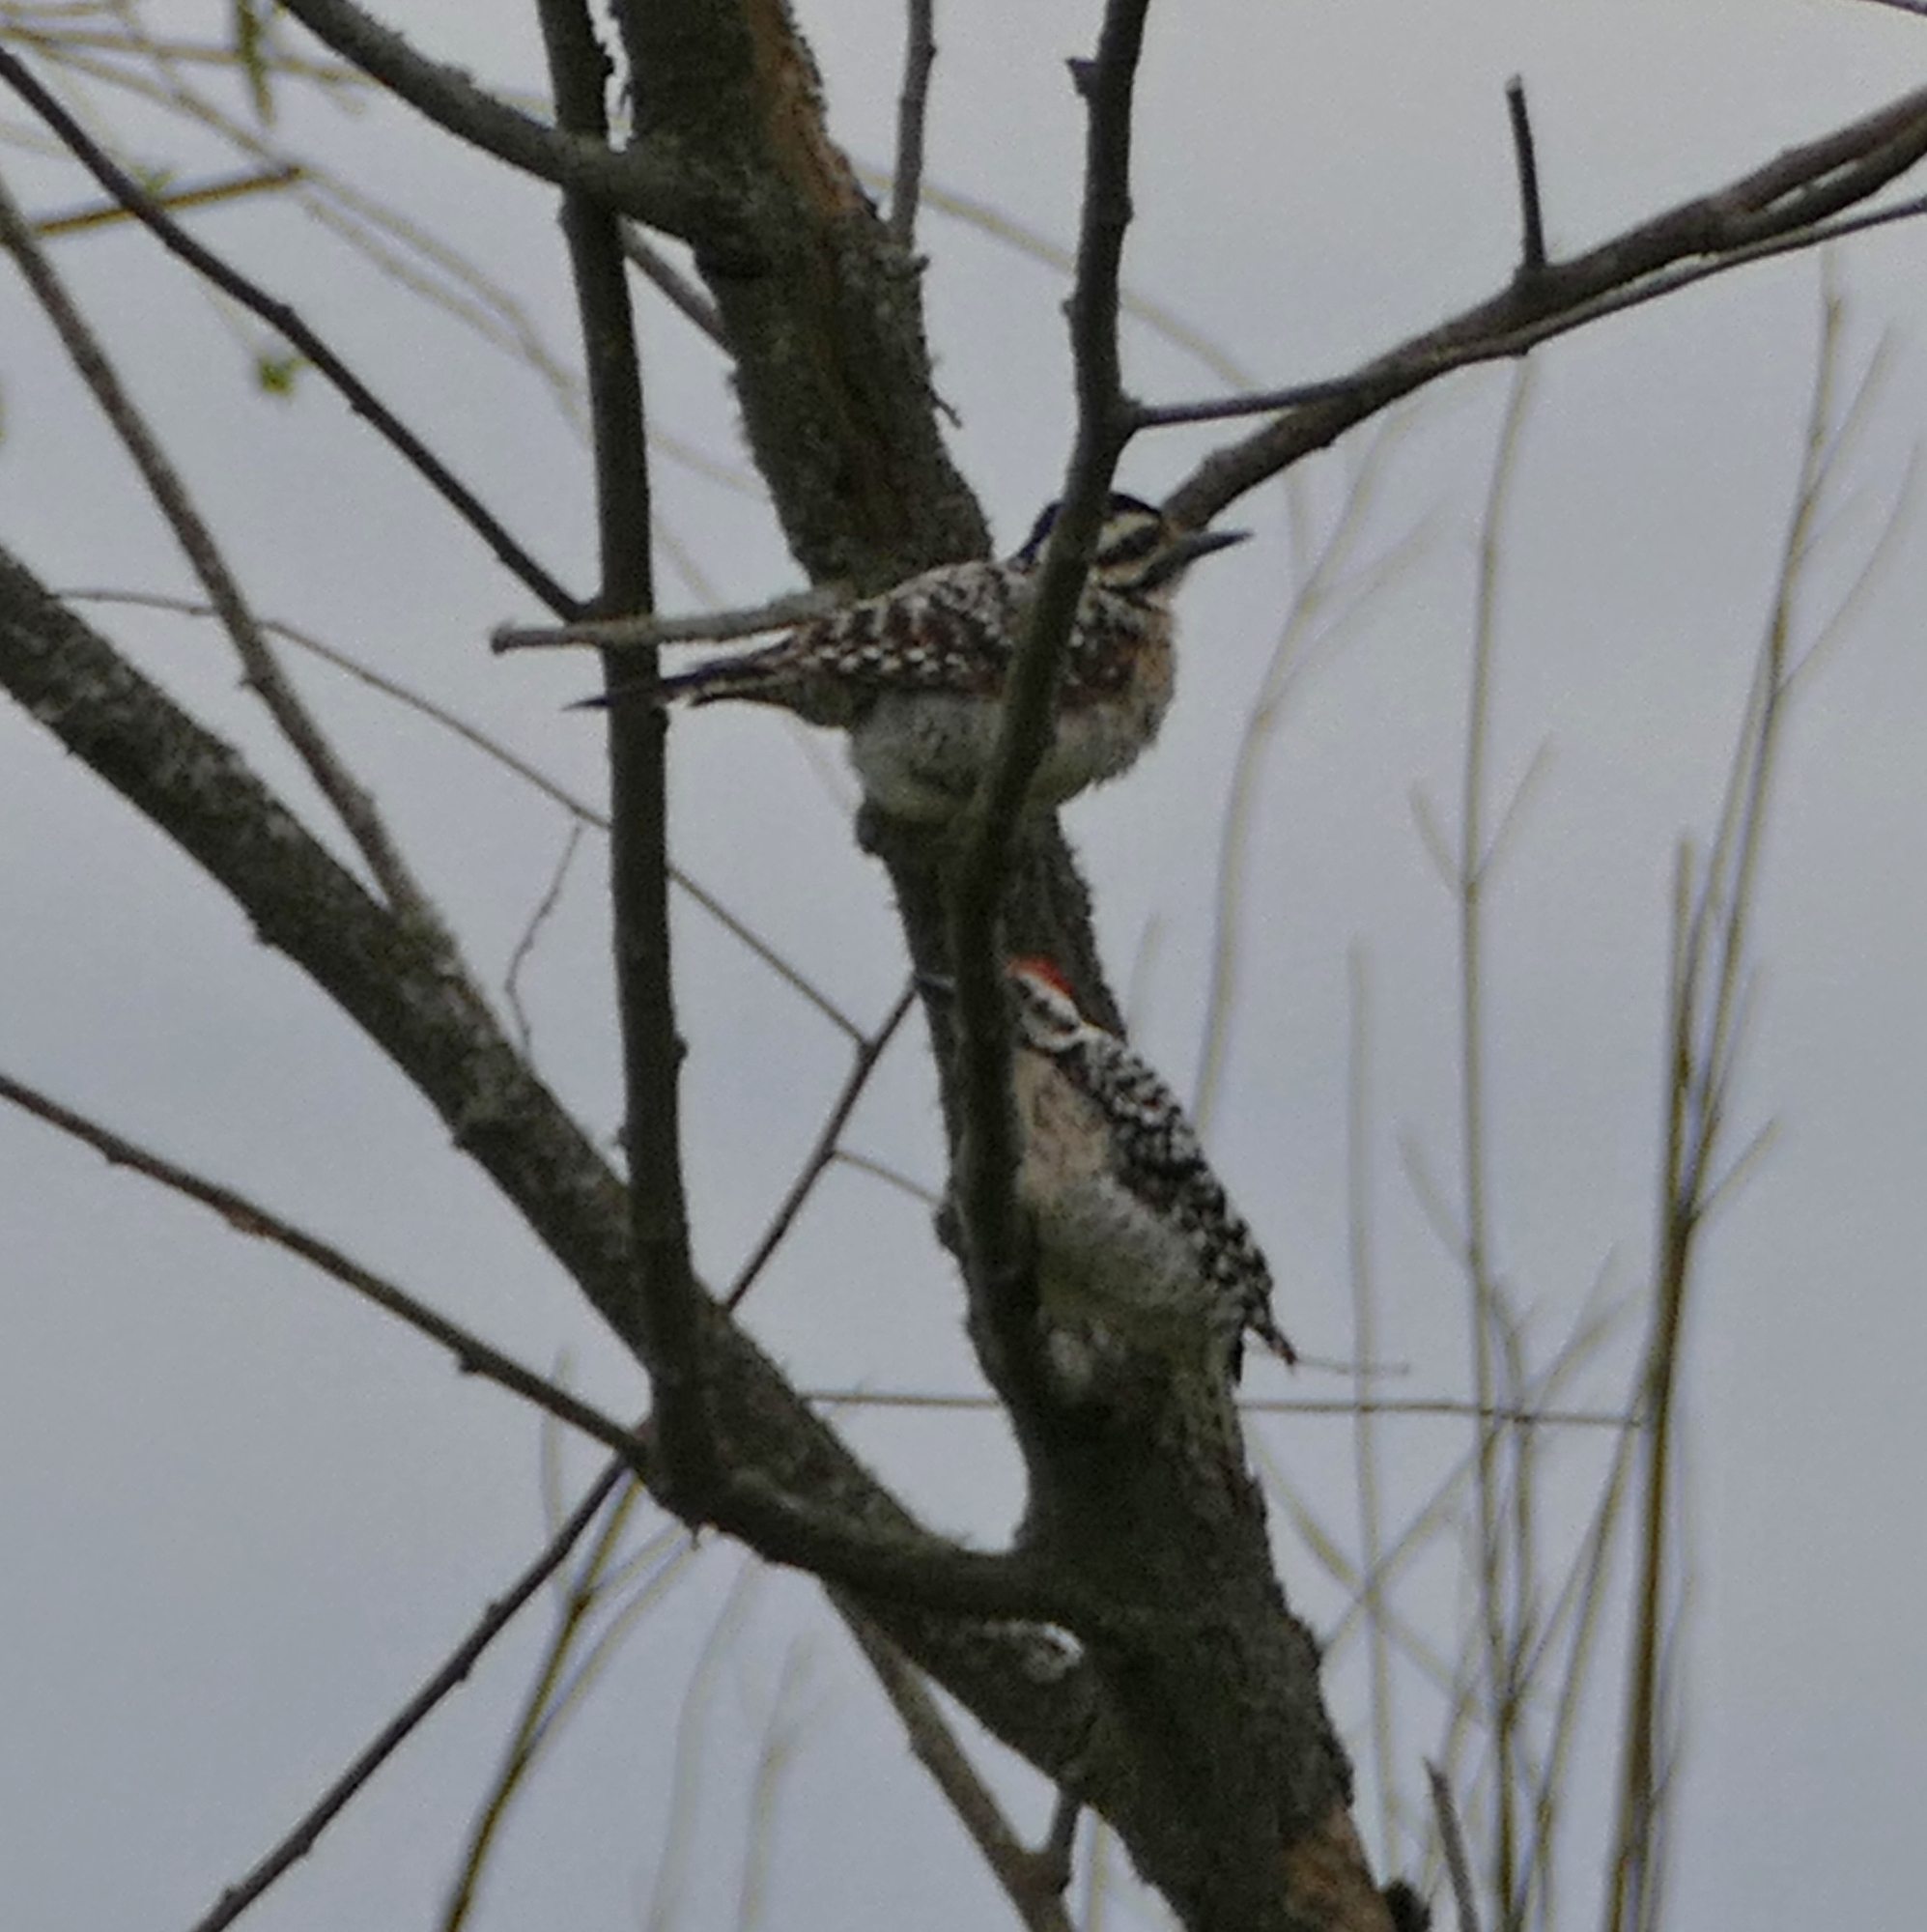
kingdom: Animalia
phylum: Chordata
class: Aves
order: Piciformes
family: Picidae
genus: Dryobates
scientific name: Dryobates scalaris
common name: Ladder-backed woodpecker
